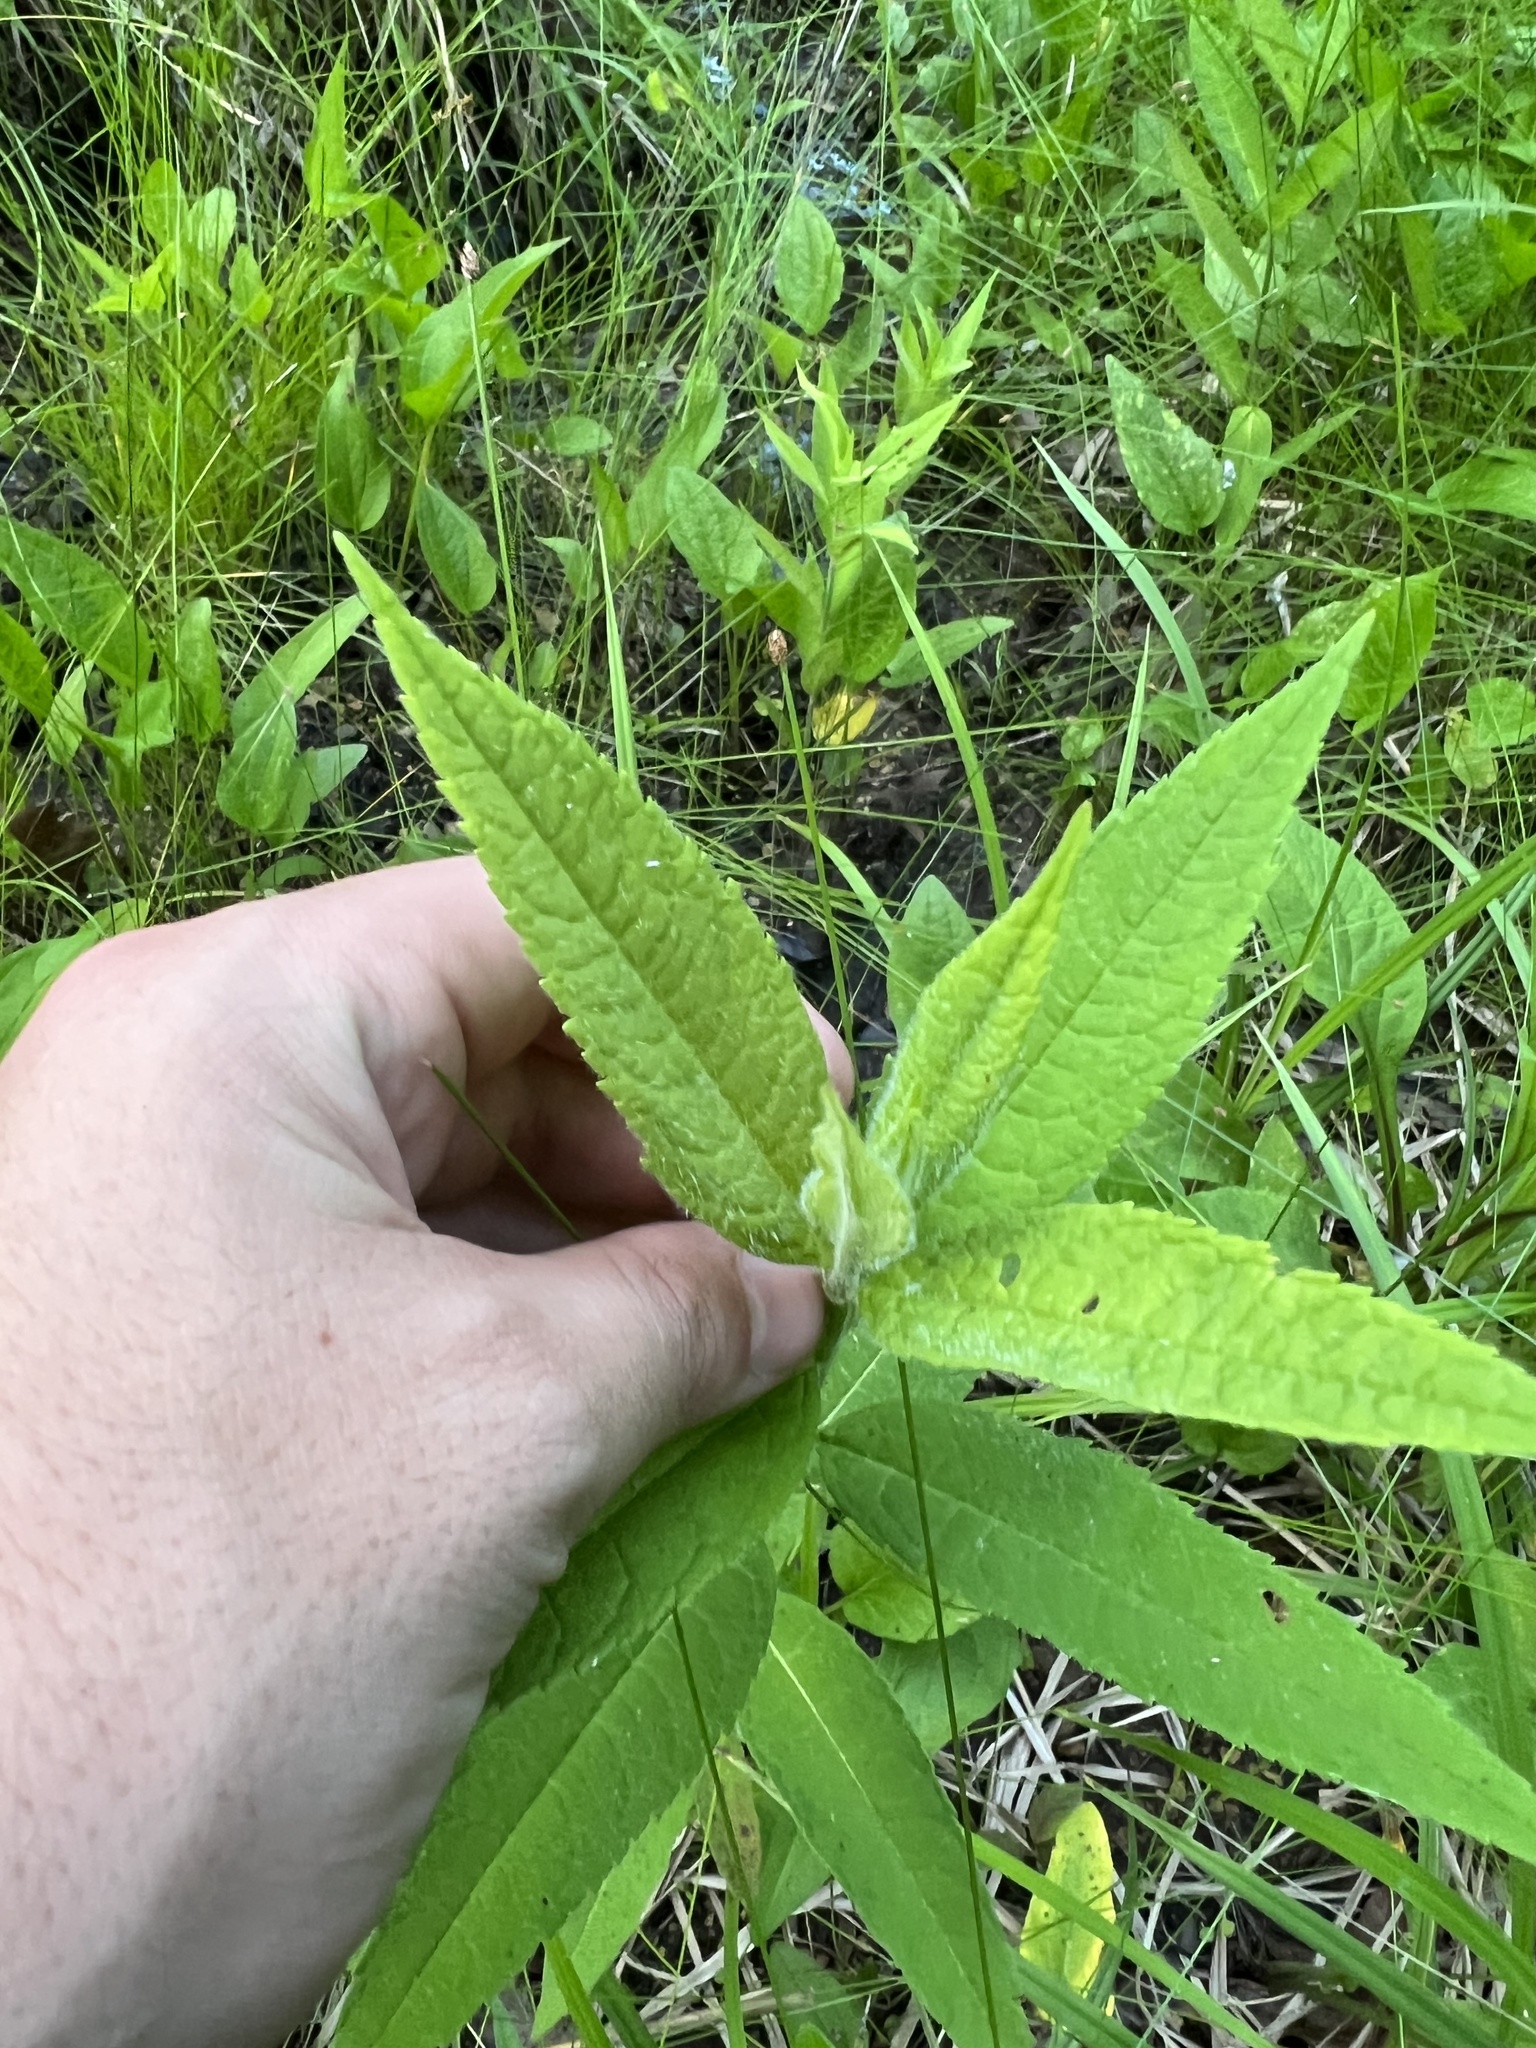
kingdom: Plantae
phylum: Tracheophyta
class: Magnoliopsida
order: Lamiales
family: Plantaginaceae
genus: Chelone
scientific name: Chelone glabra
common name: Snakehead
